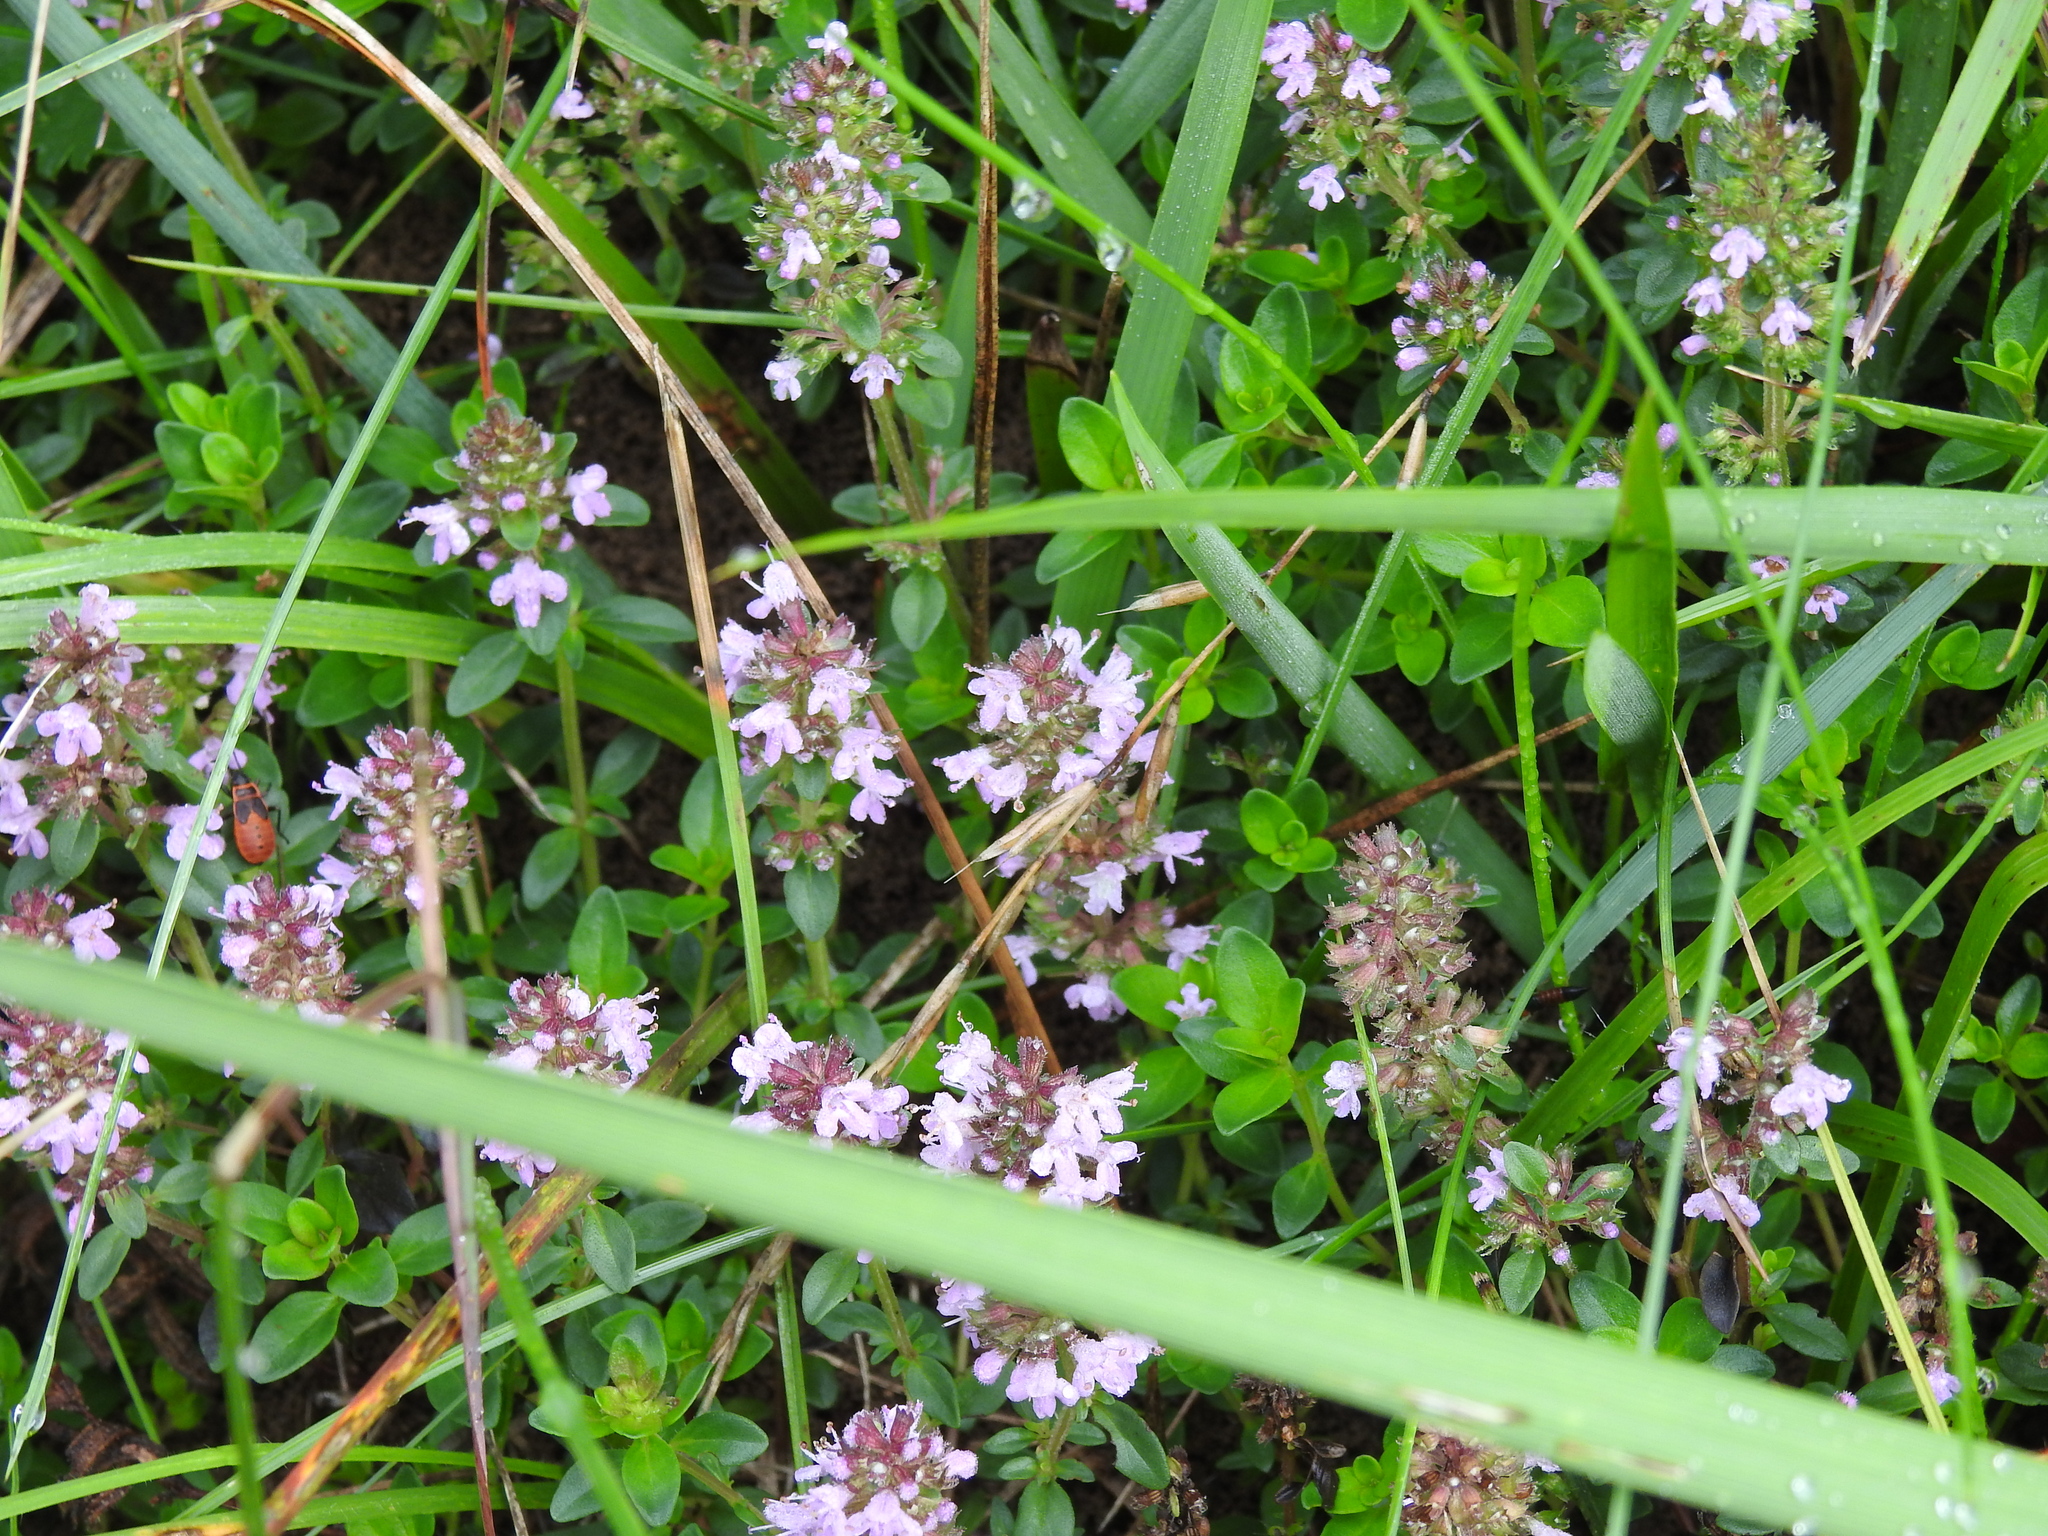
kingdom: Plantae
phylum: Tracheophyta
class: Magnoliopsida
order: Lamiales
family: Lamiaceae
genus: Thymus
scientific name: Thymus pulegioides
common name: Large thyme
